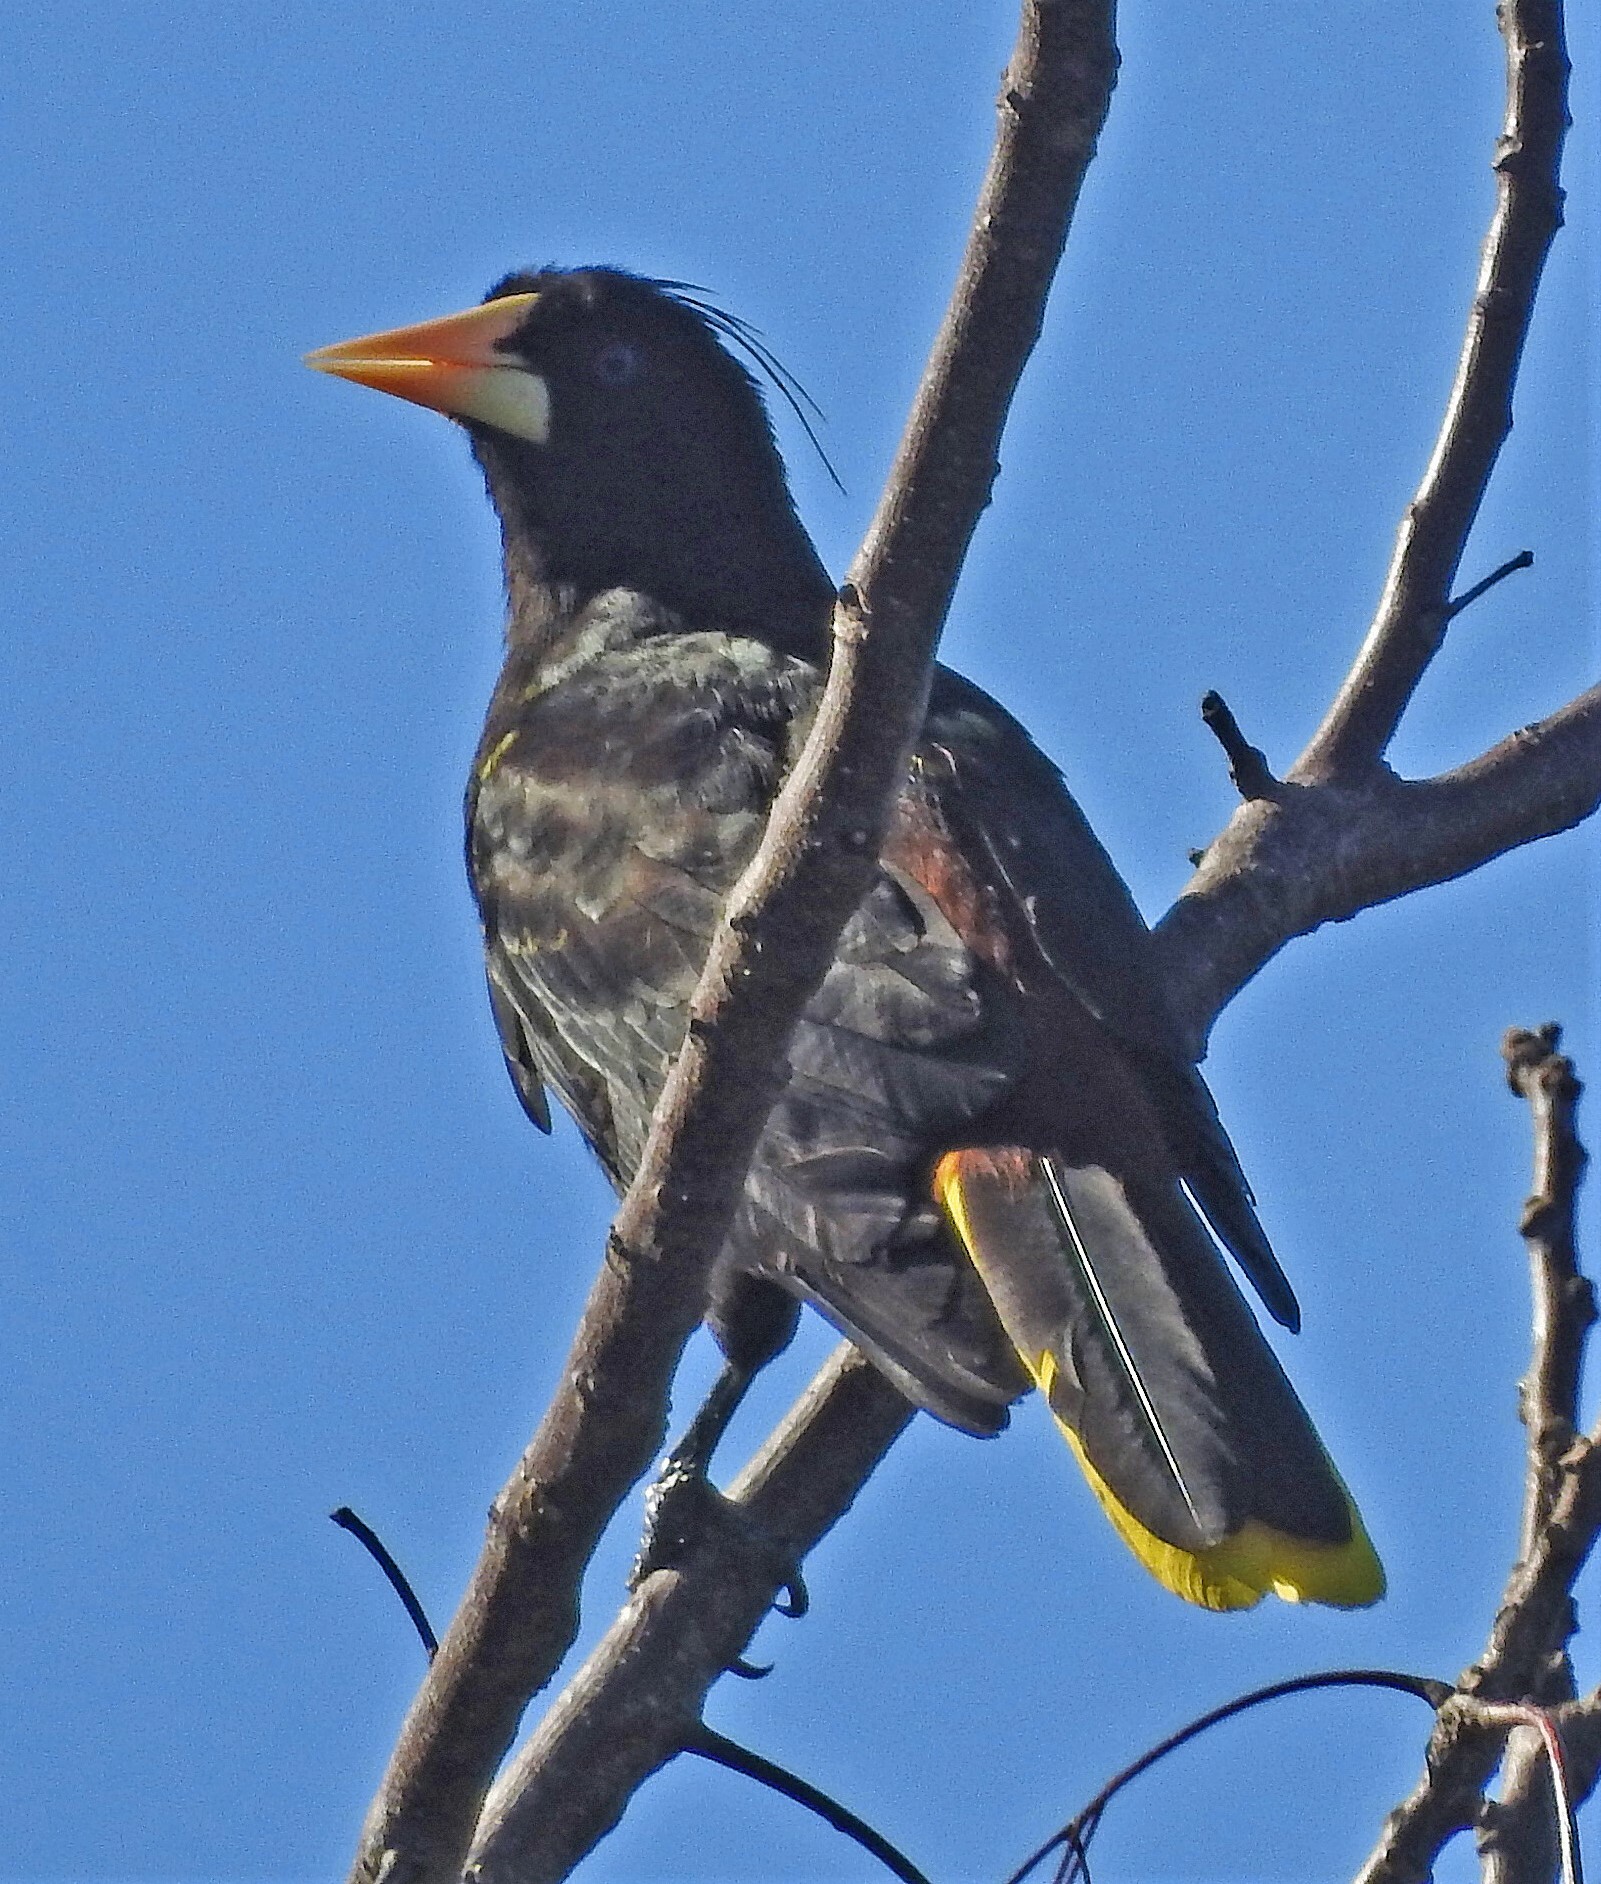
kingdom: Animalia
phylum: Chordata
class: Aves
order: Passeriformes
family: Icteridae
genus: Psarocolius
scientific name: Psarocolius decumanus
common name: Crested oropendola
